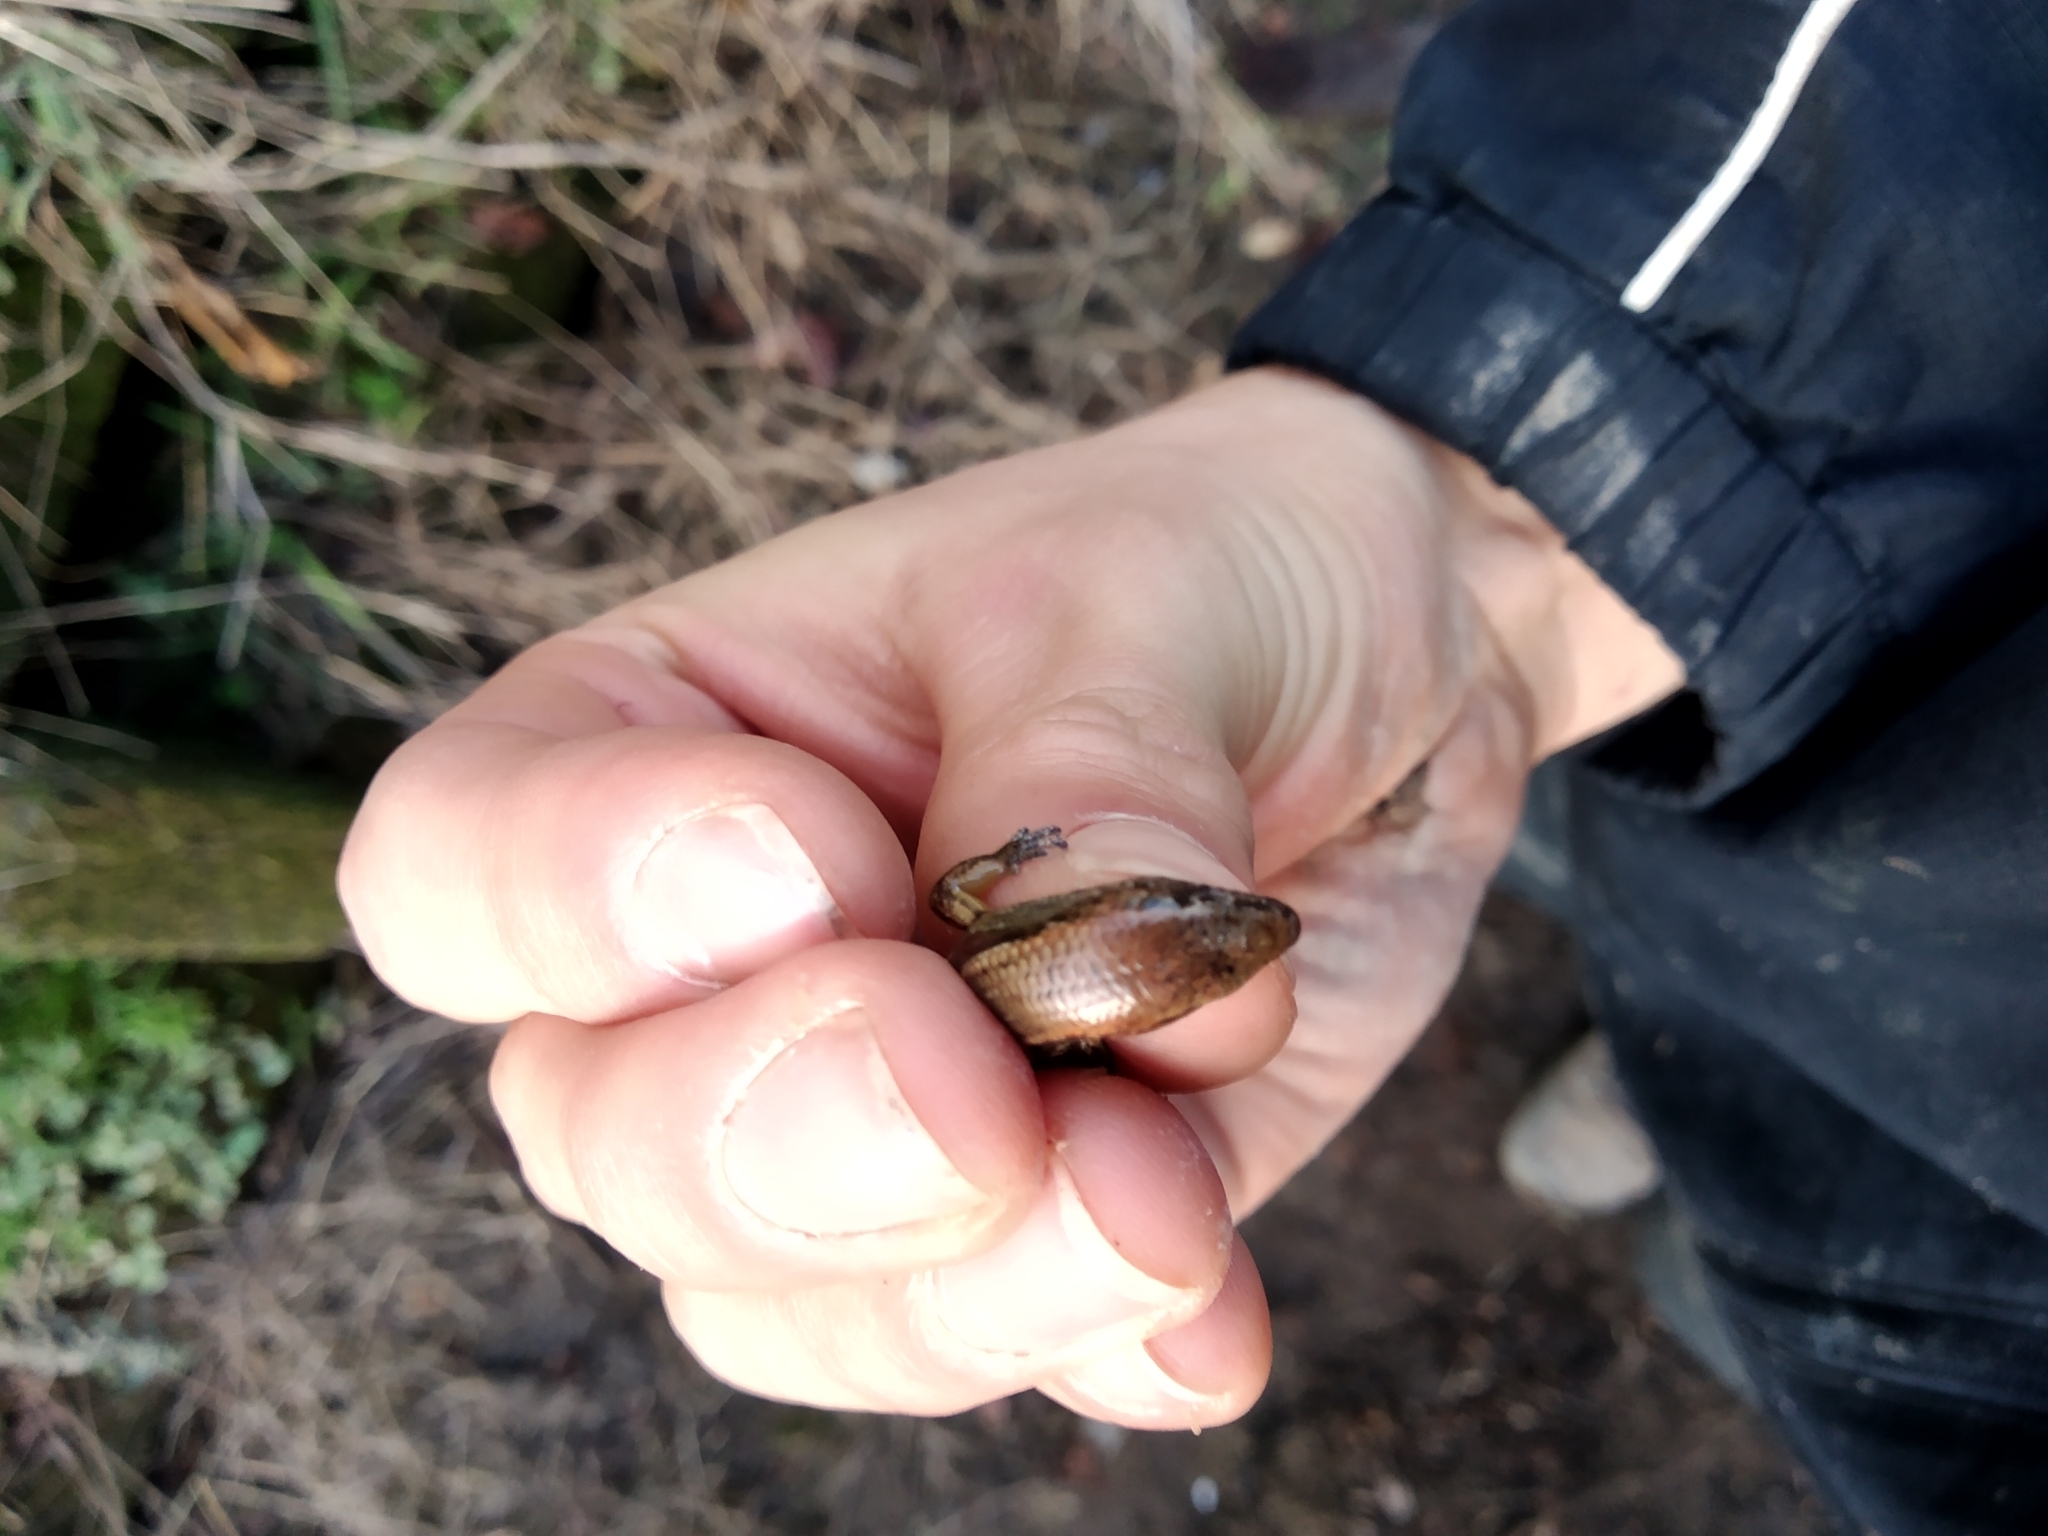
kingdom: Animalia
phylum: Chordata
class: Squamata
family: Scincidae
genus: Oligosoma
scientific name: Oligosoma aeneum
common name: Copper skink
